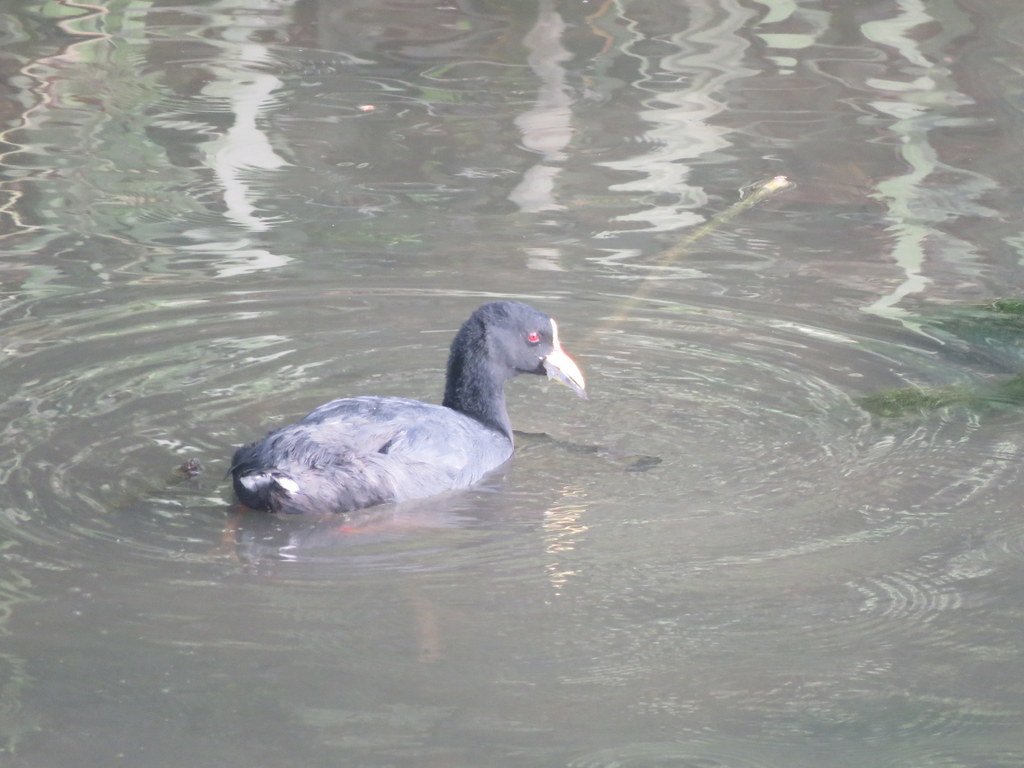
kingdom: Animalia
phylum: Chordata
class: Aves
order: Gruiformes
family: Rallidae
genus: Fulica
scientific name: Fulica armillata
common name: Red-gartered coot
